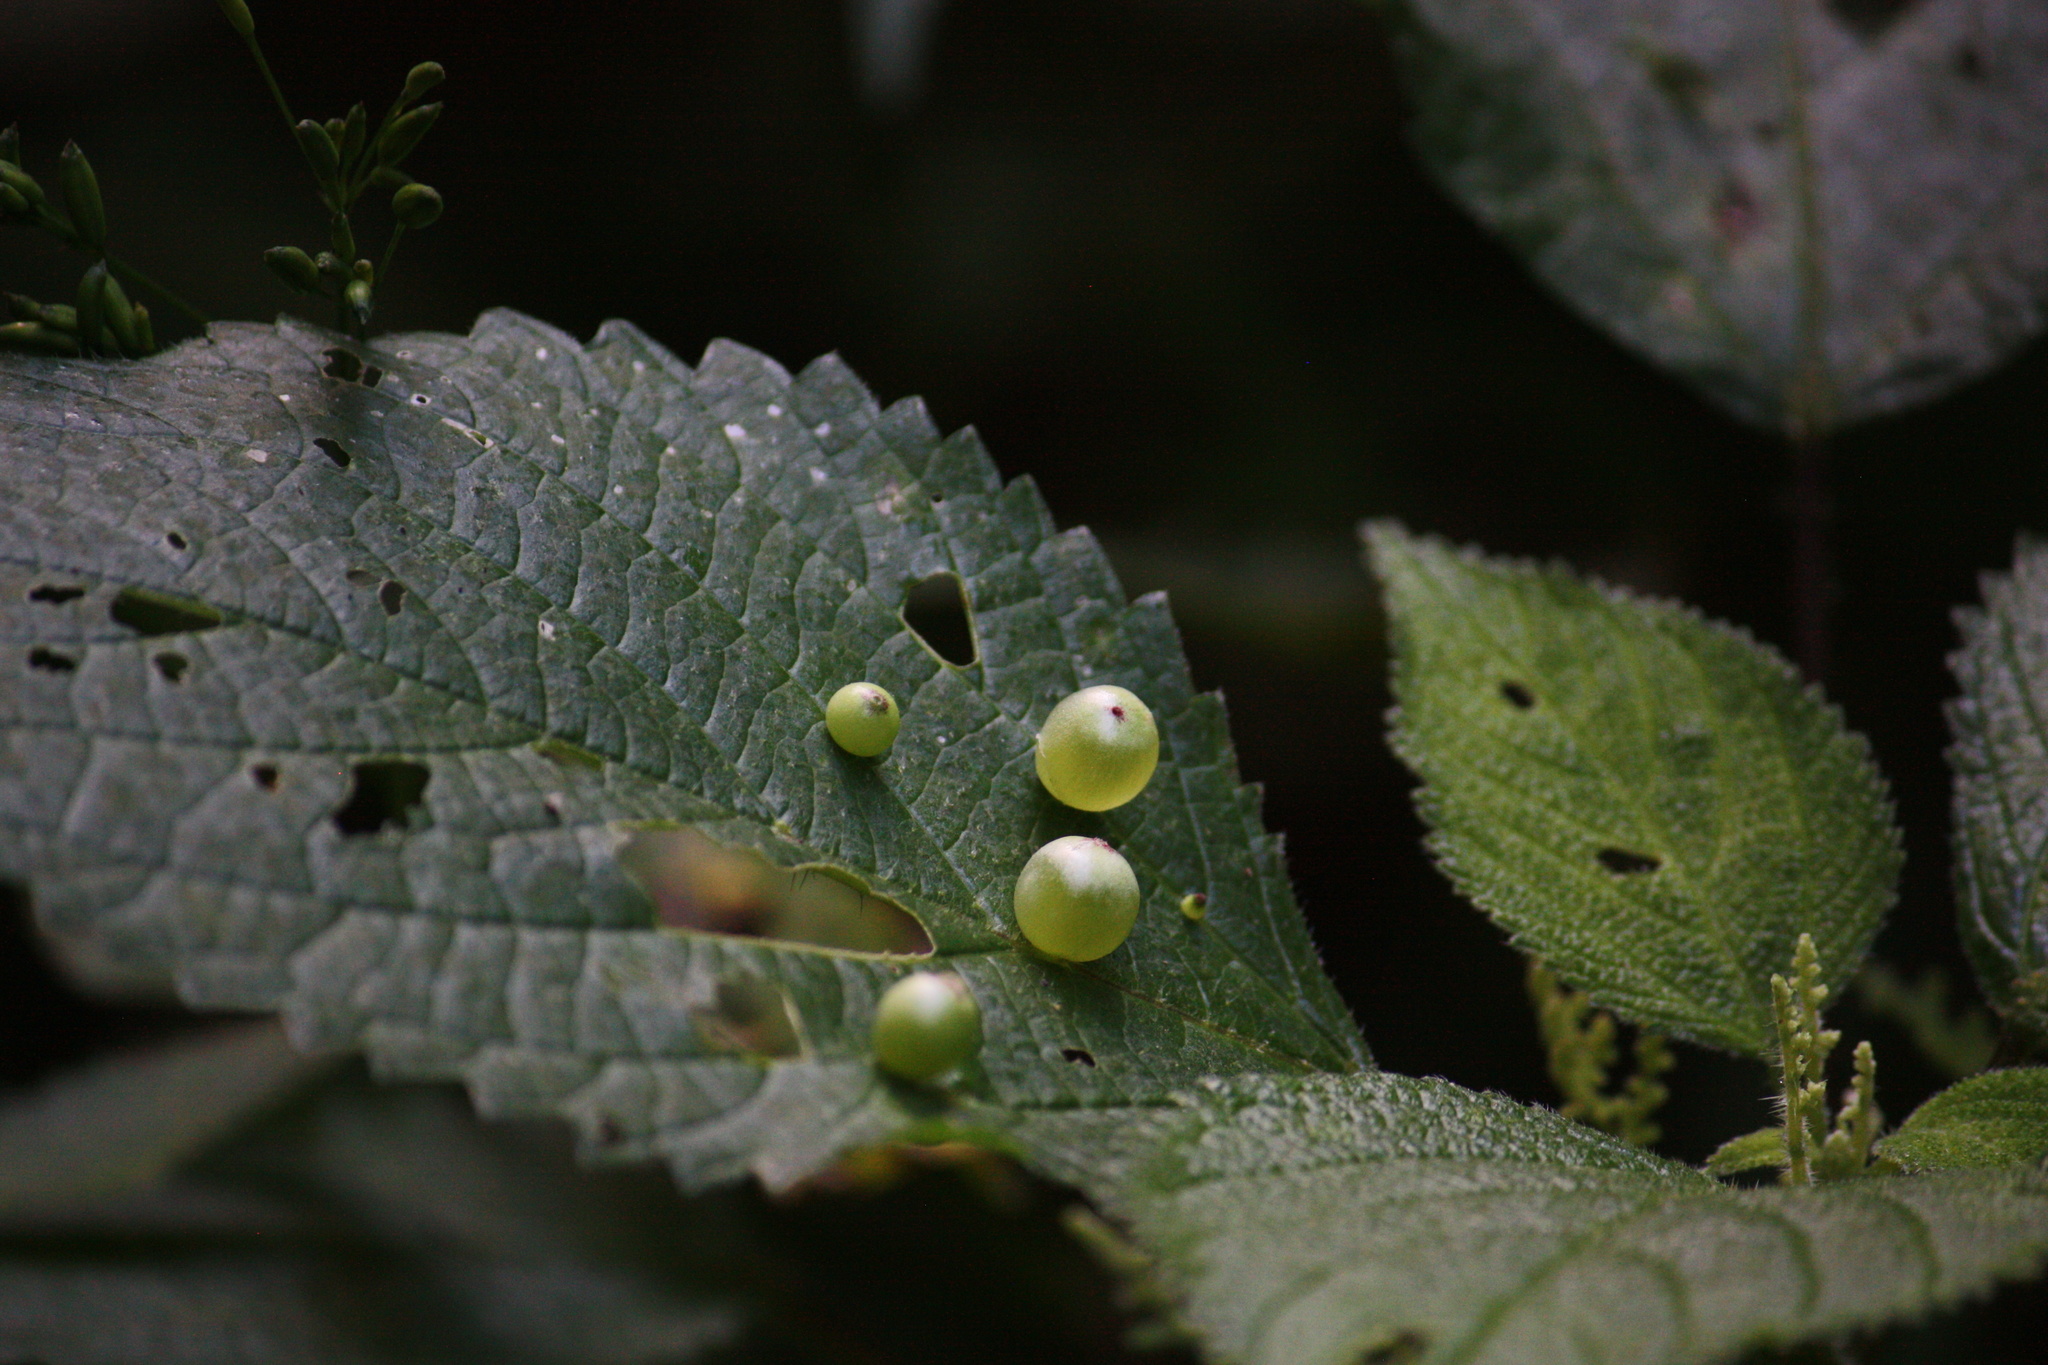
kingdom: Animalia
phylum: Arthropoda
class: Insecta
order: Diptera
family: Cecidomyiidae
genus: Dasineura
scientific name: Dasineura investita
